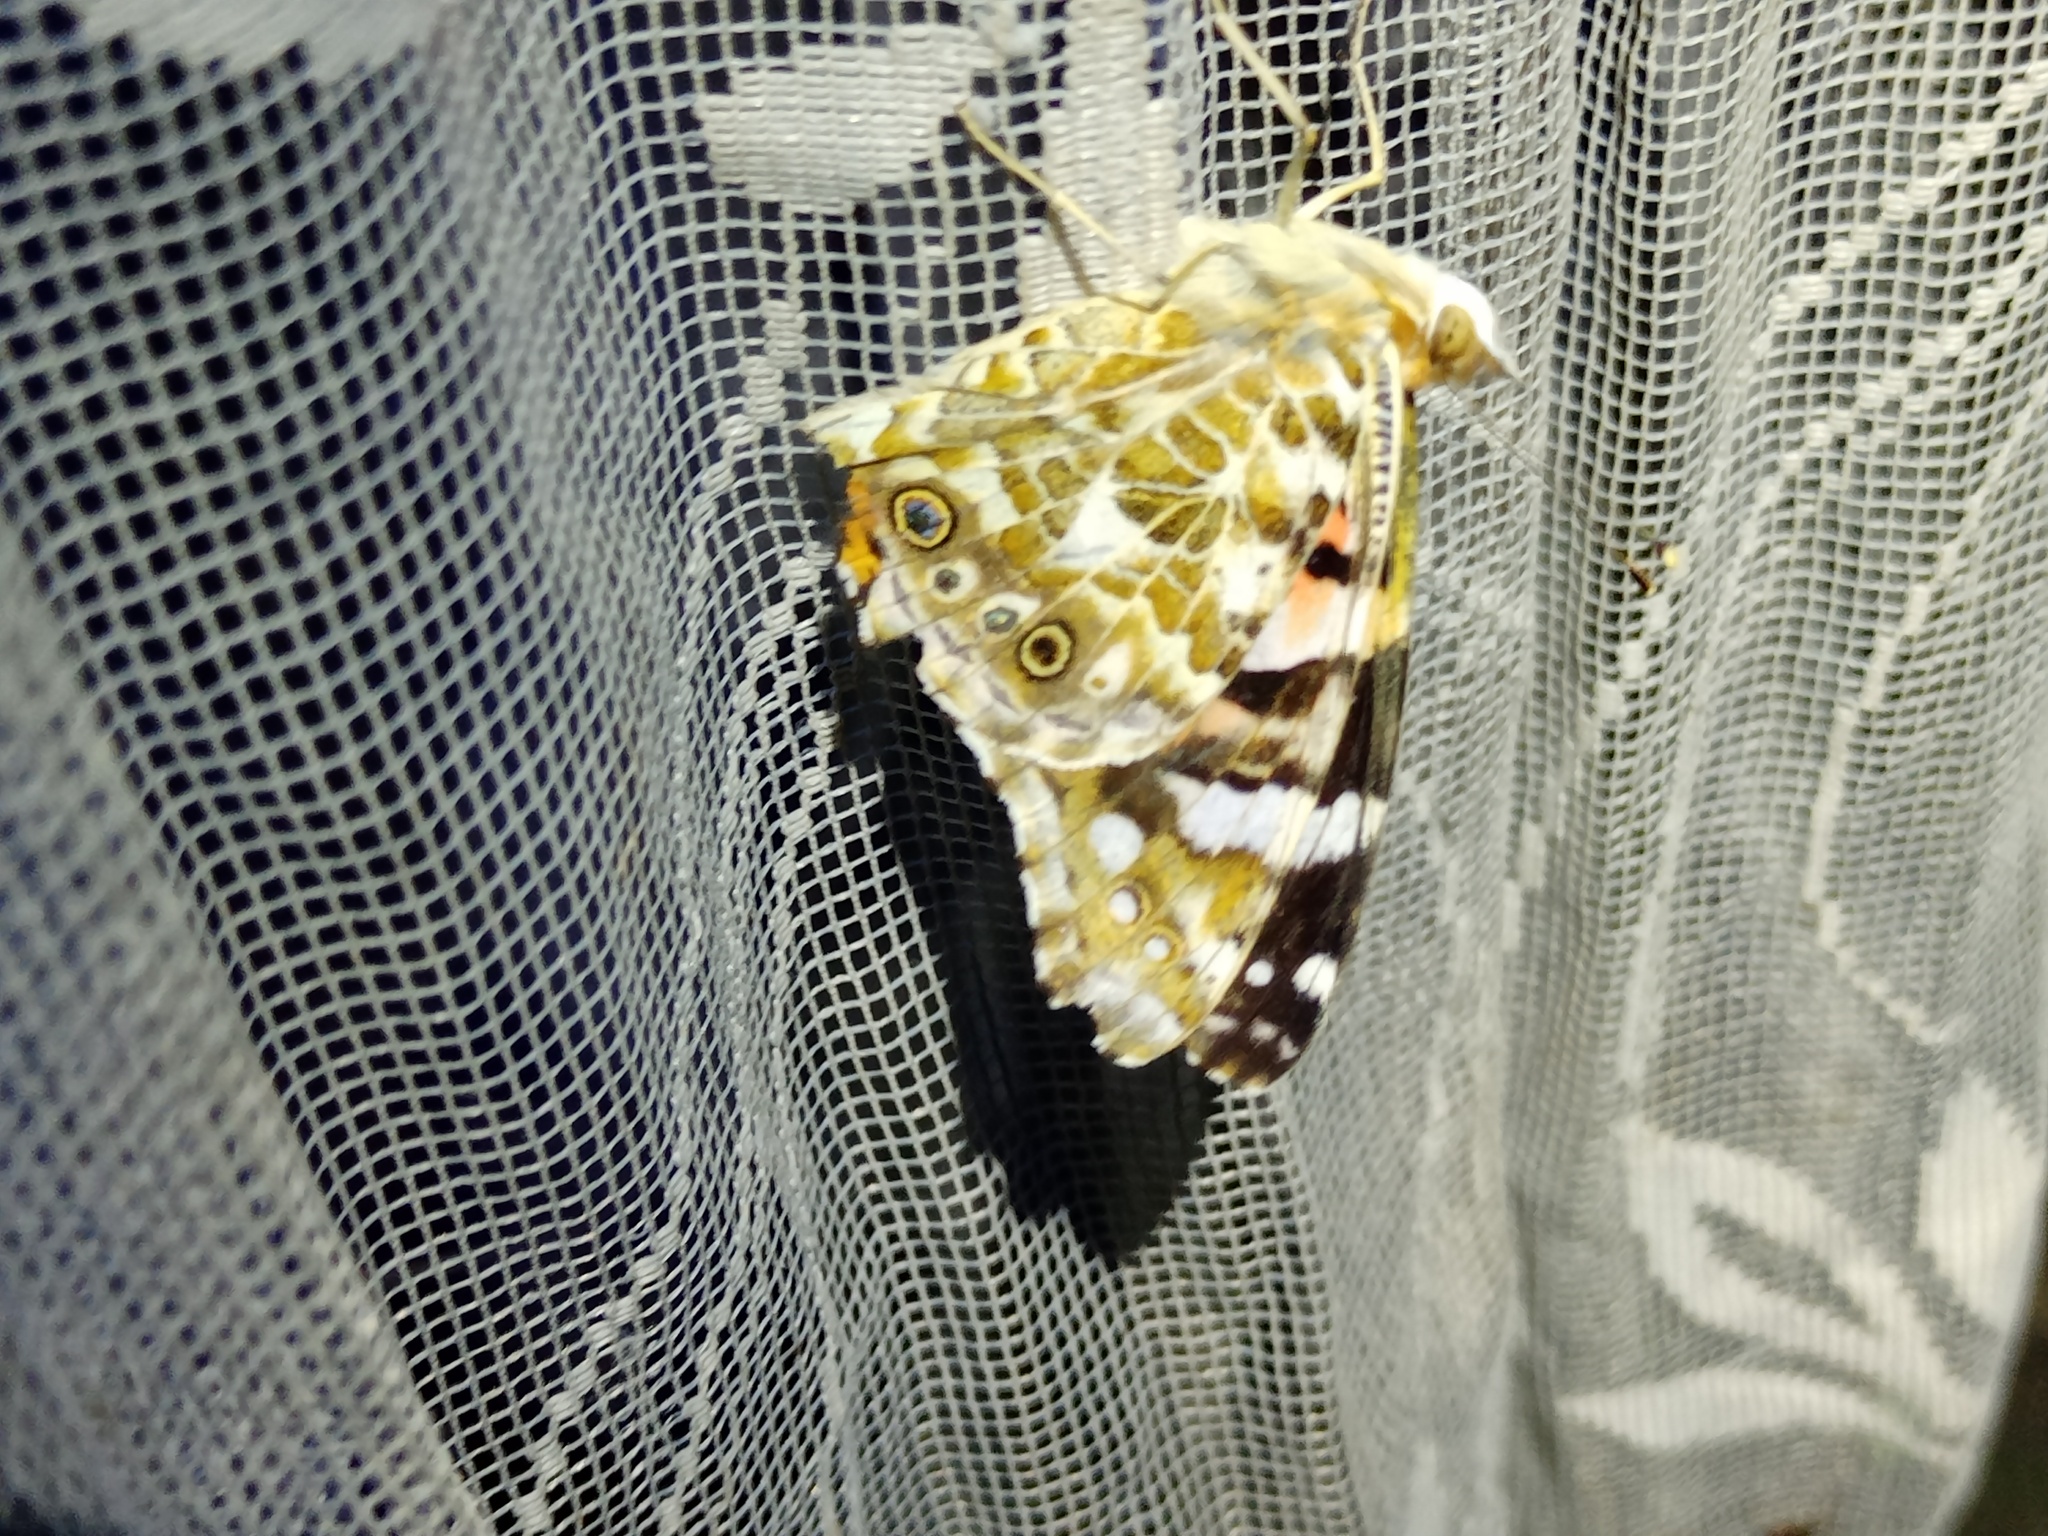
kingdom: Animalia
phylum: Arthropoda
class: Insecta
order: Lepidoptera
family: Nymphalidae
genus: Vanessa
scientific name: Vanessa cardui
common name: Painted lady
